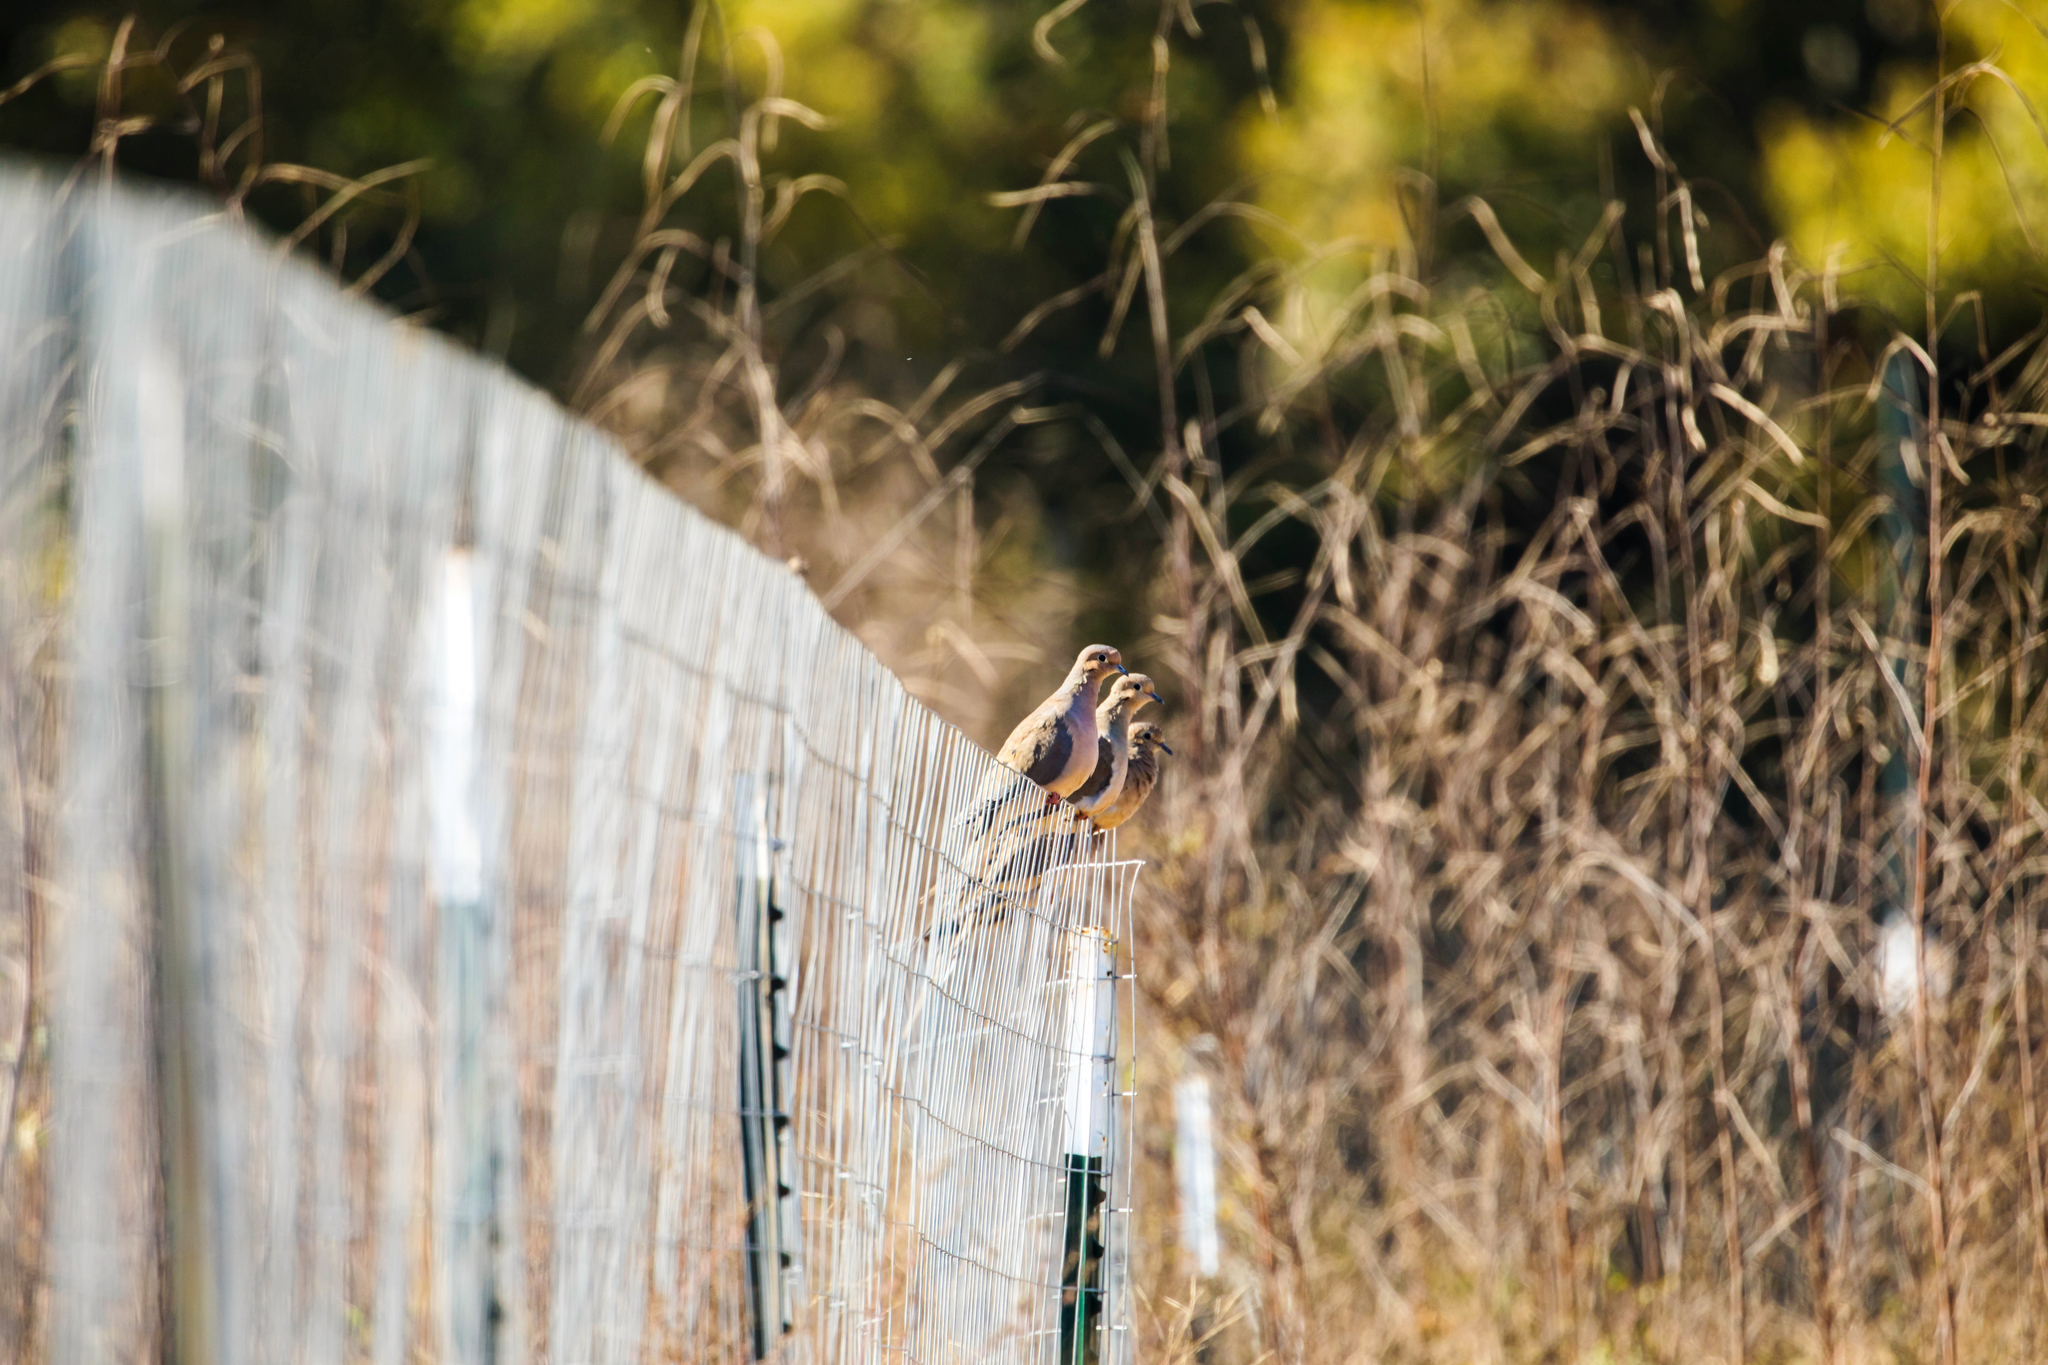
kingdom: Animalia
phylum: Chordata
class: Aves
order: Columbiformes
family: Columbidae
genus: Zenaida
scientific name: Zenaida macroura
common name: Mourning dove
